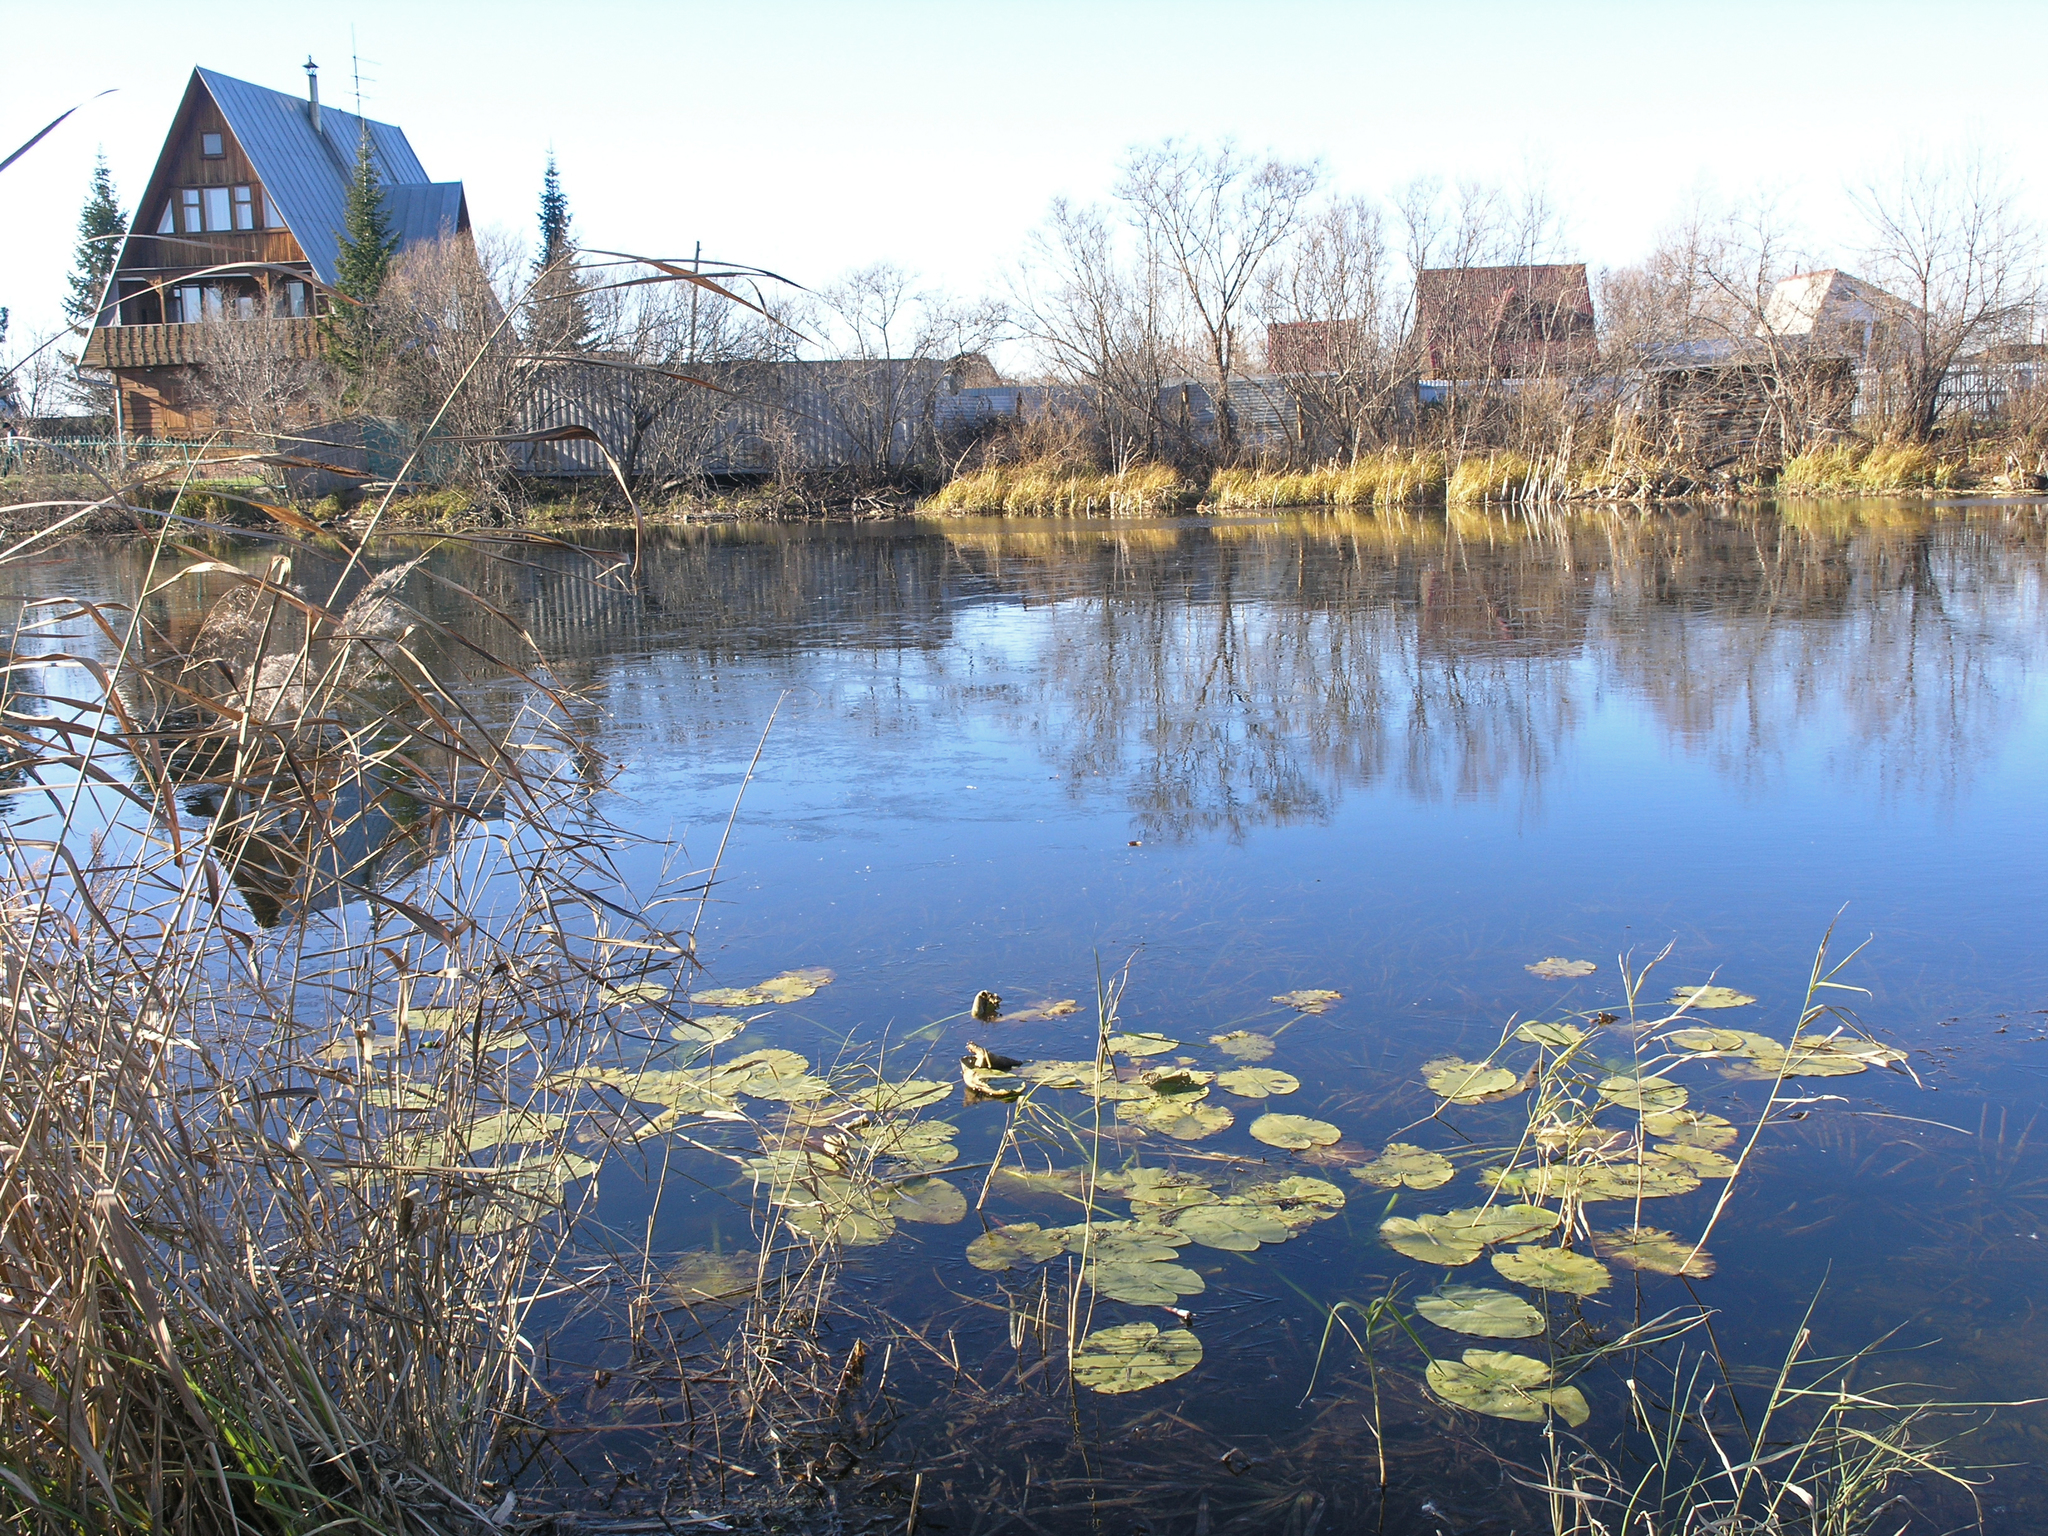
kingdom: Plantae
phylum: Tracheophyta
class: Magnoliopsida
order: Nymphaeales
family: Nymphaeaceae
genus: Nuphar
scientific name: Nuphar lutea
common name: Yellow water-lily
